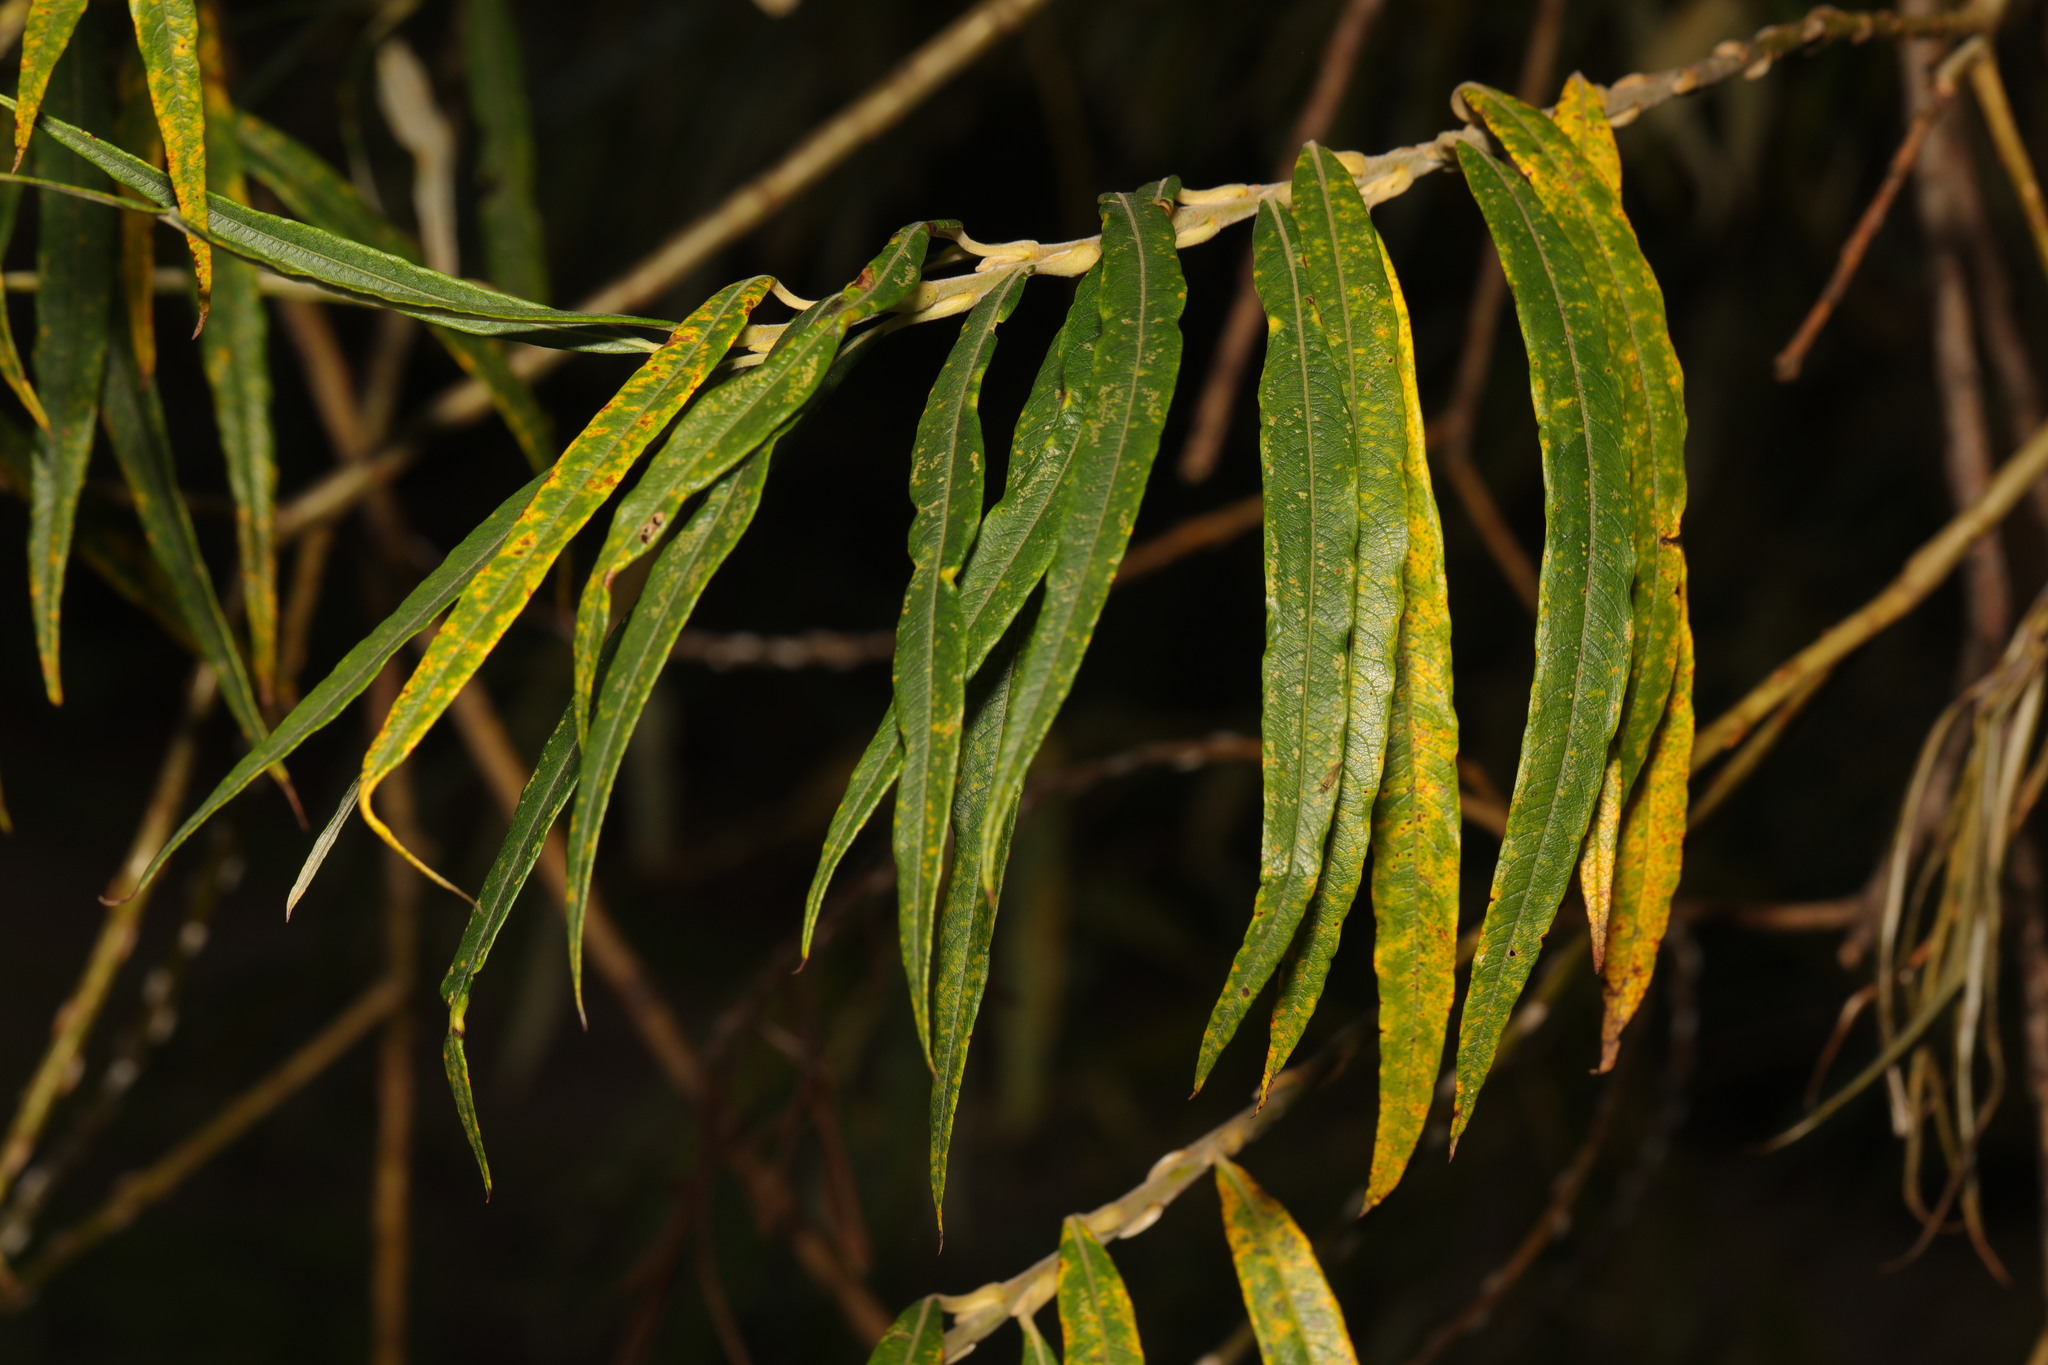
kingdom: Plantae
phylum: Tracheophyta
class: Magnoliopsida
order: Malpighiales
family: Salicaceae
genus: Salix
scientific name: Salix viminalis
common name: Osier
